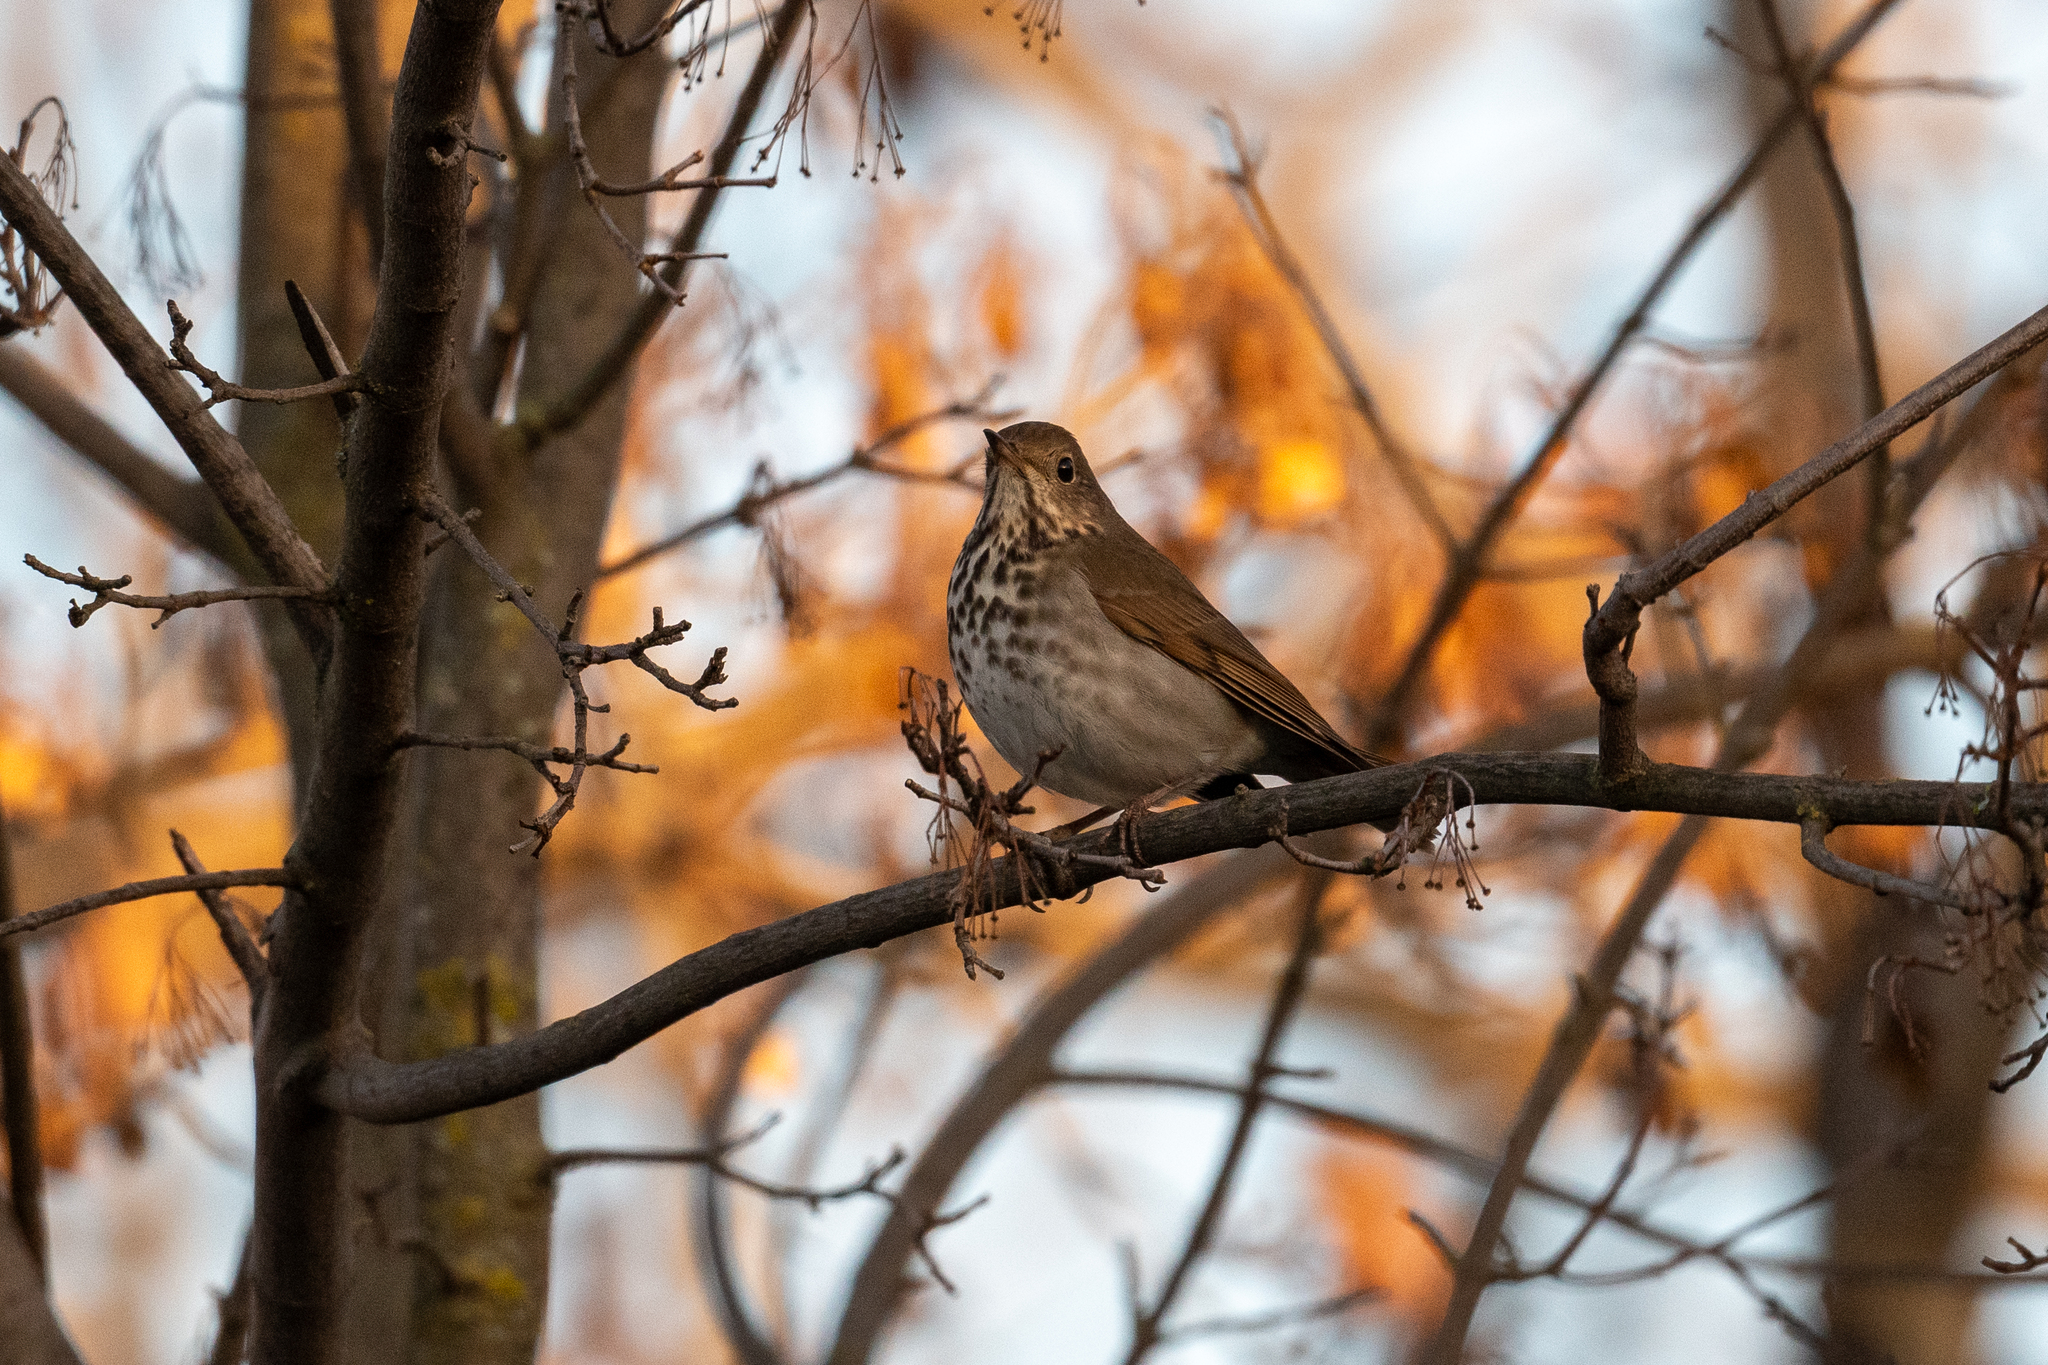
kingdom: Animalia
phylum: Chordata
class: Aves
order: Passeriformes
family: Turdidae
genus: Catharus
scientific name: Catharus guttatus
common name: Hermit thrush
